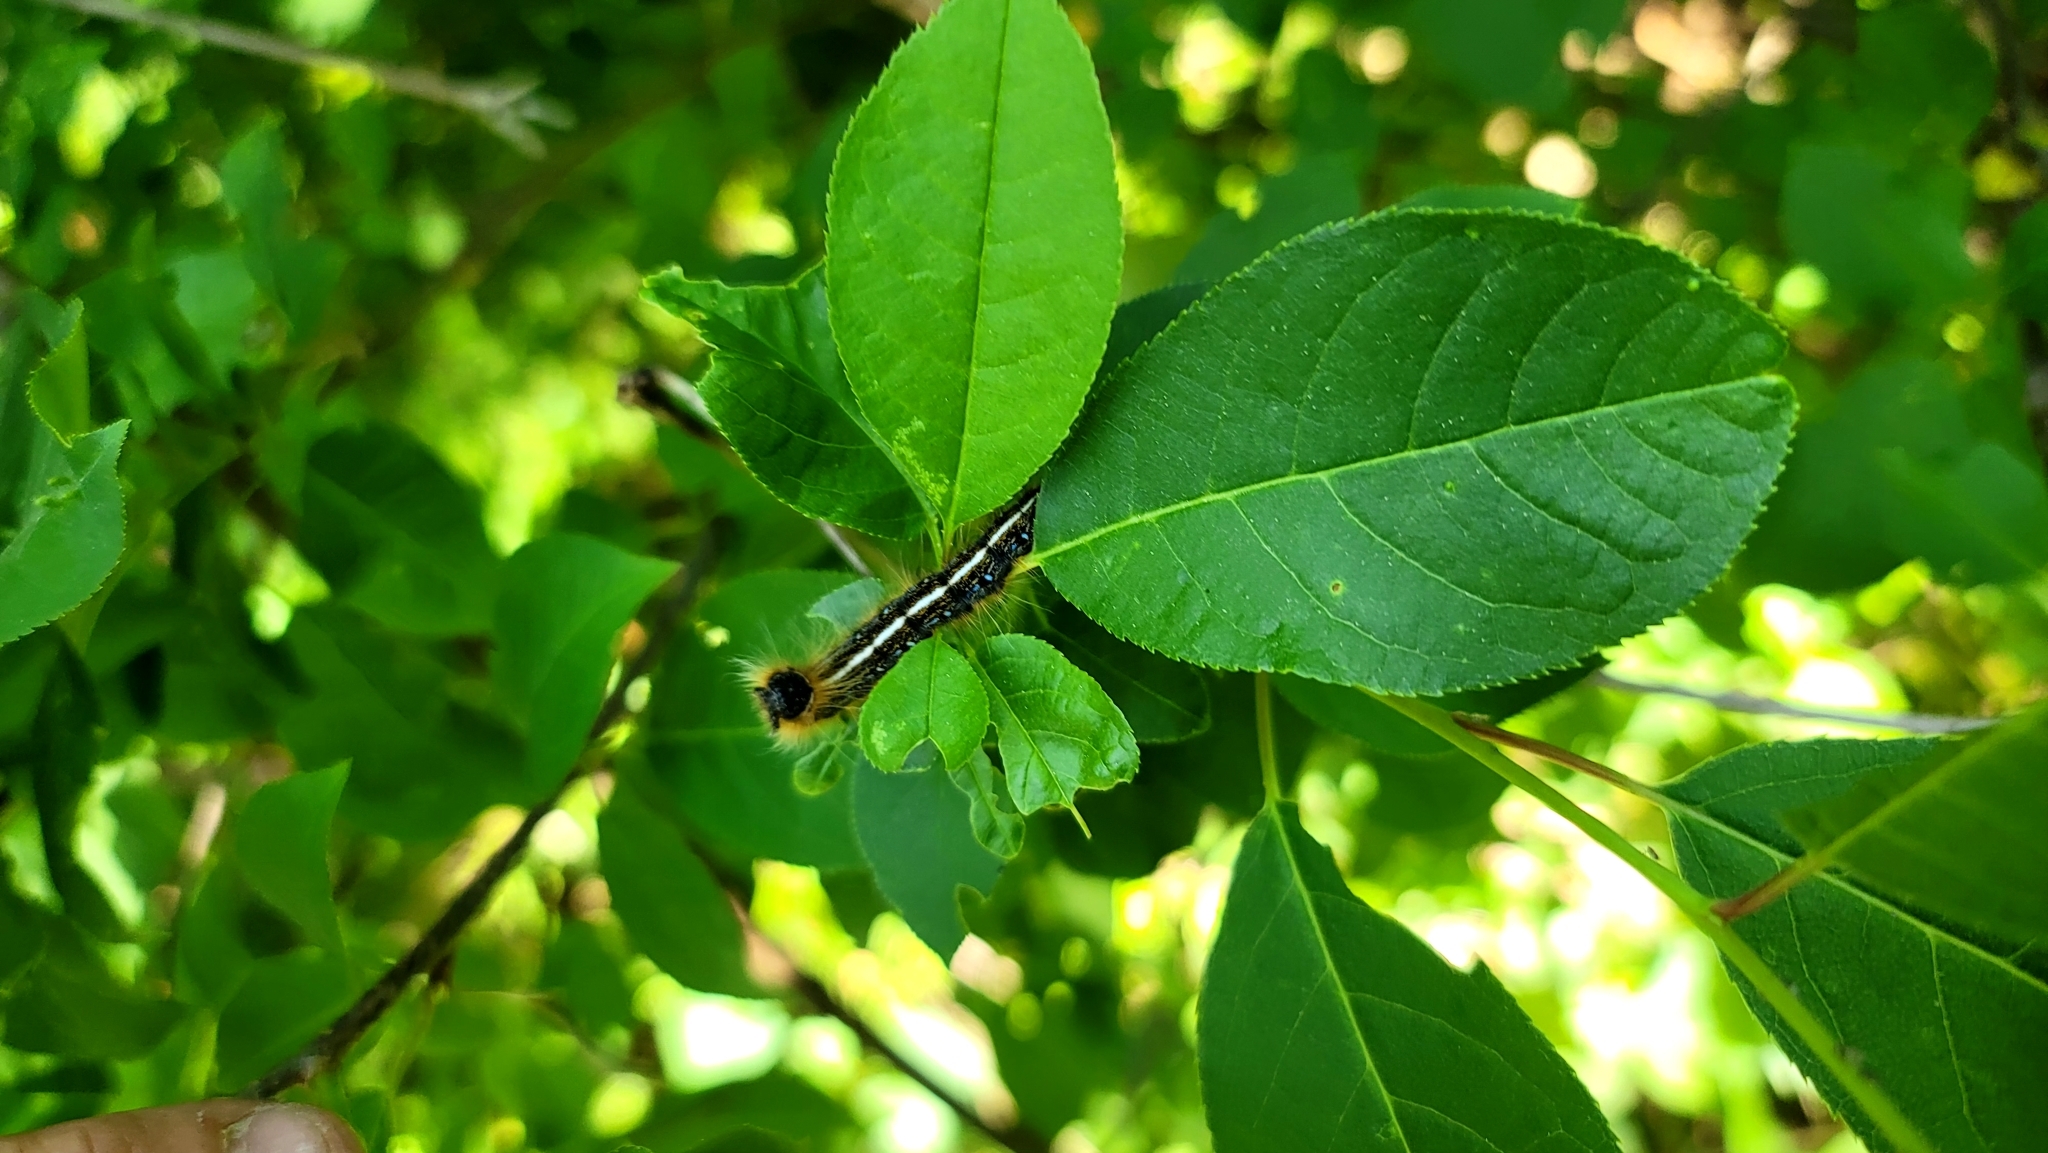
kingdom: Animalia
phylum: Arthropoda
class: Insecta
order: Lepidoptera
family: Lasiocampidae
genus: Malacosoma
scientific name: Malacosoma americana
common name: Eastern tent caterpillar moth
